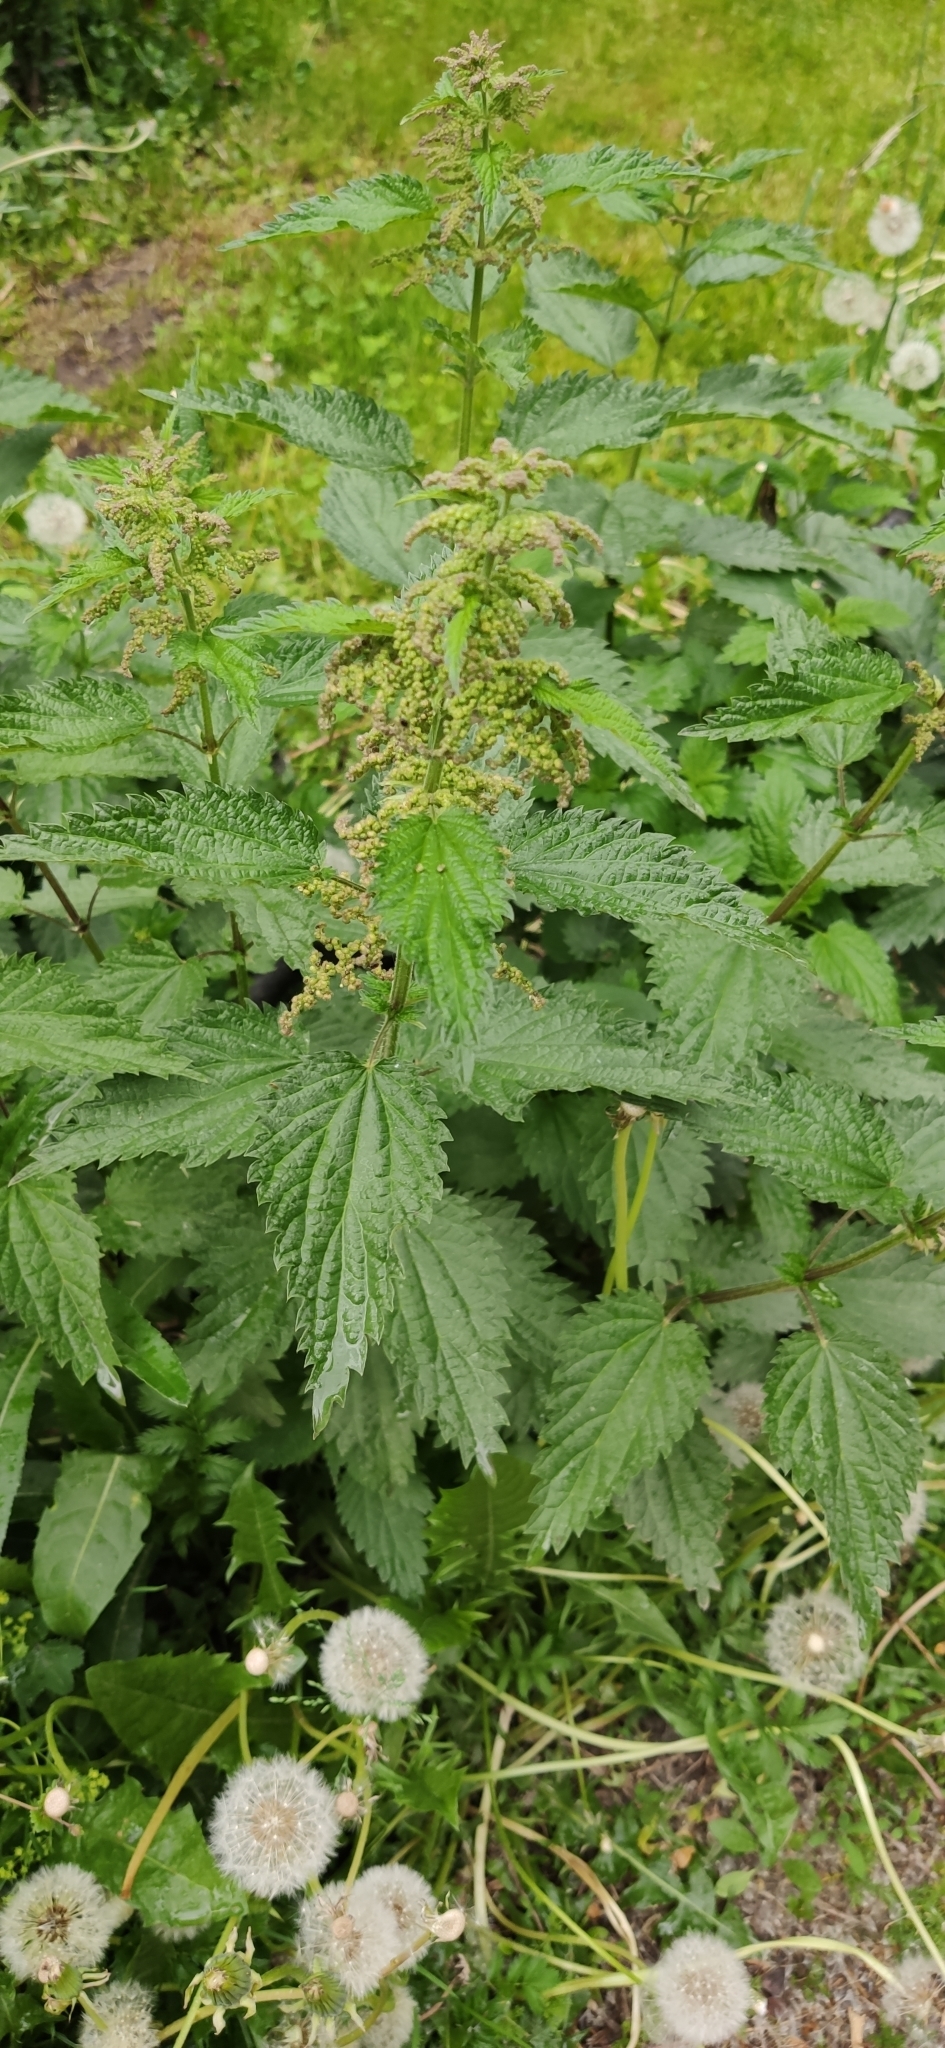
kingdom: Plantae
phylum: Tracheophyta
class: Magnoliopsida
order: Rosales
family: Urticaceae
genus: Urtica
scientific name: Urtica dioica
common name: Common nettle
